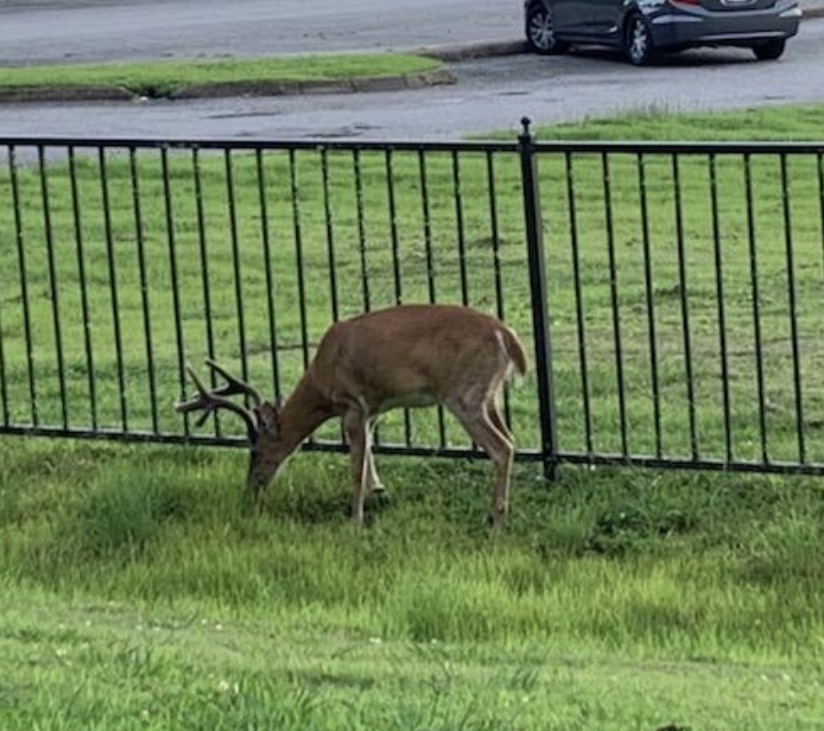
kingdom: Animalia
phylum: Chordata
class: Mammalia
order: Artiodactyla
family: Cervidae
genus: Odocoileus
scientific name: Odocoileus virginianus
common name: White-tailed deer
